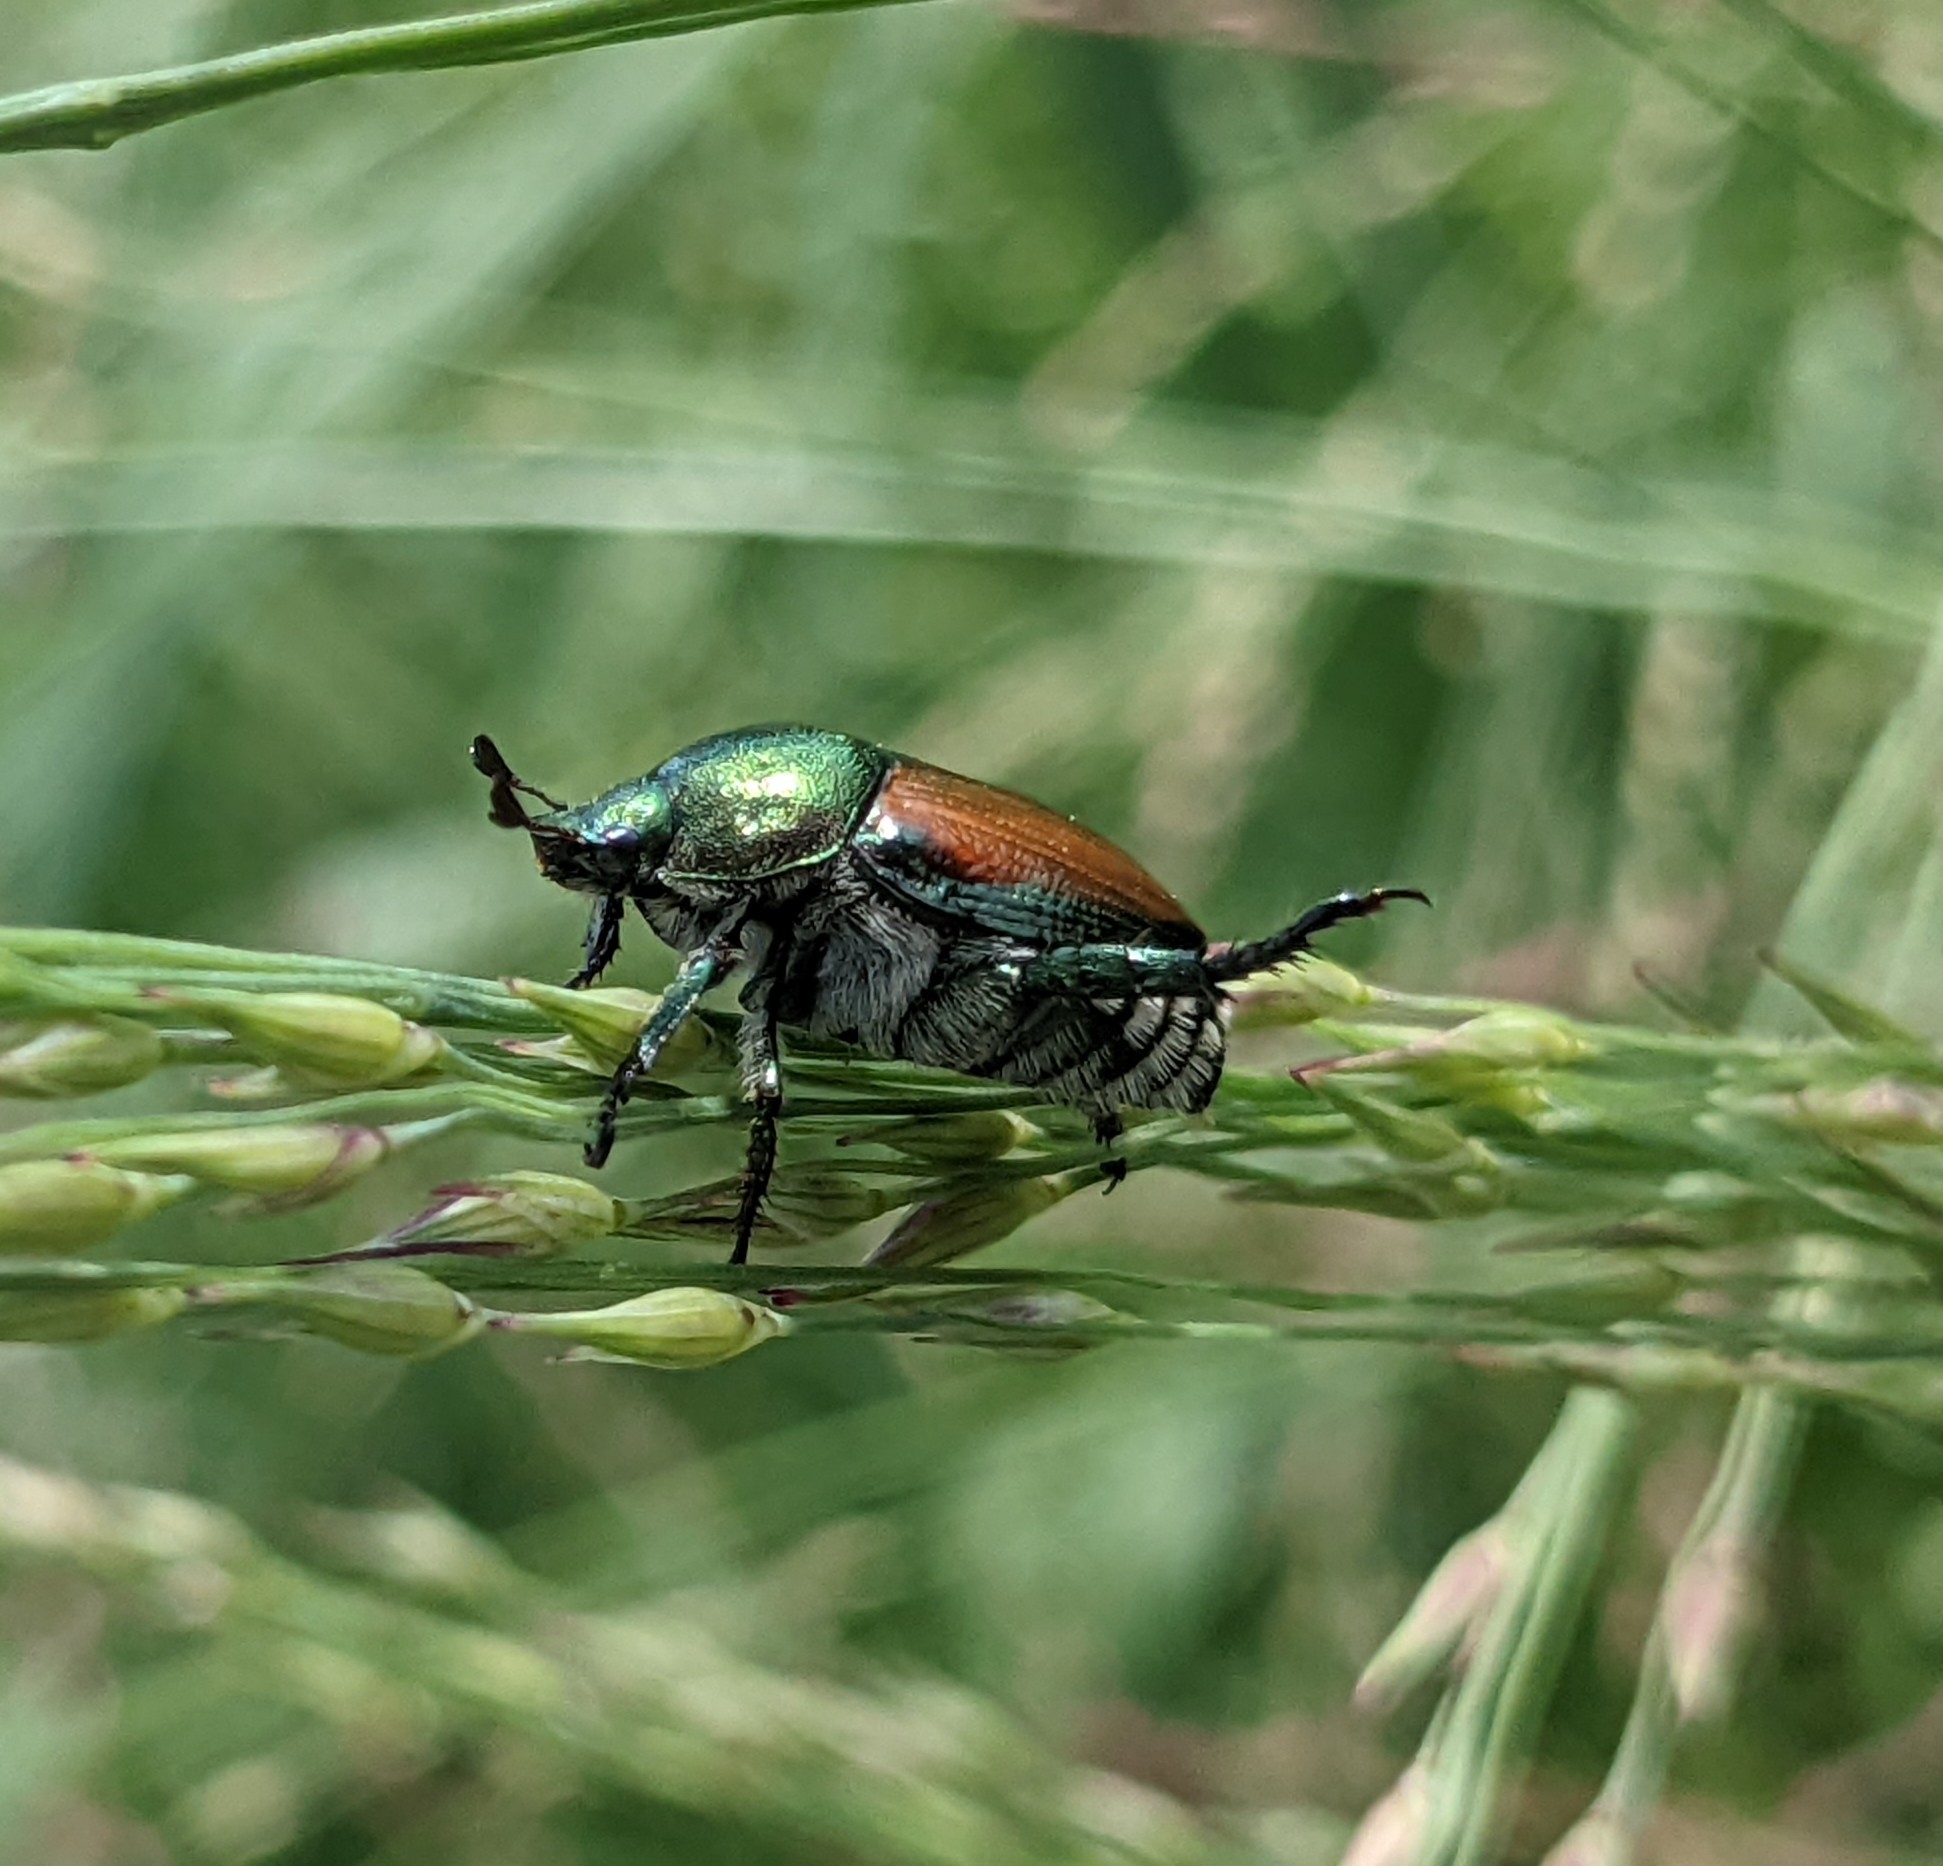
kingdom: Animalia
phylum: Arthropoda
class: Insecta
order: Coleoptera
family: Scarabaeidae
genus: Popillia
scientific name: Popillia japonica
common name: Japanese beetle
